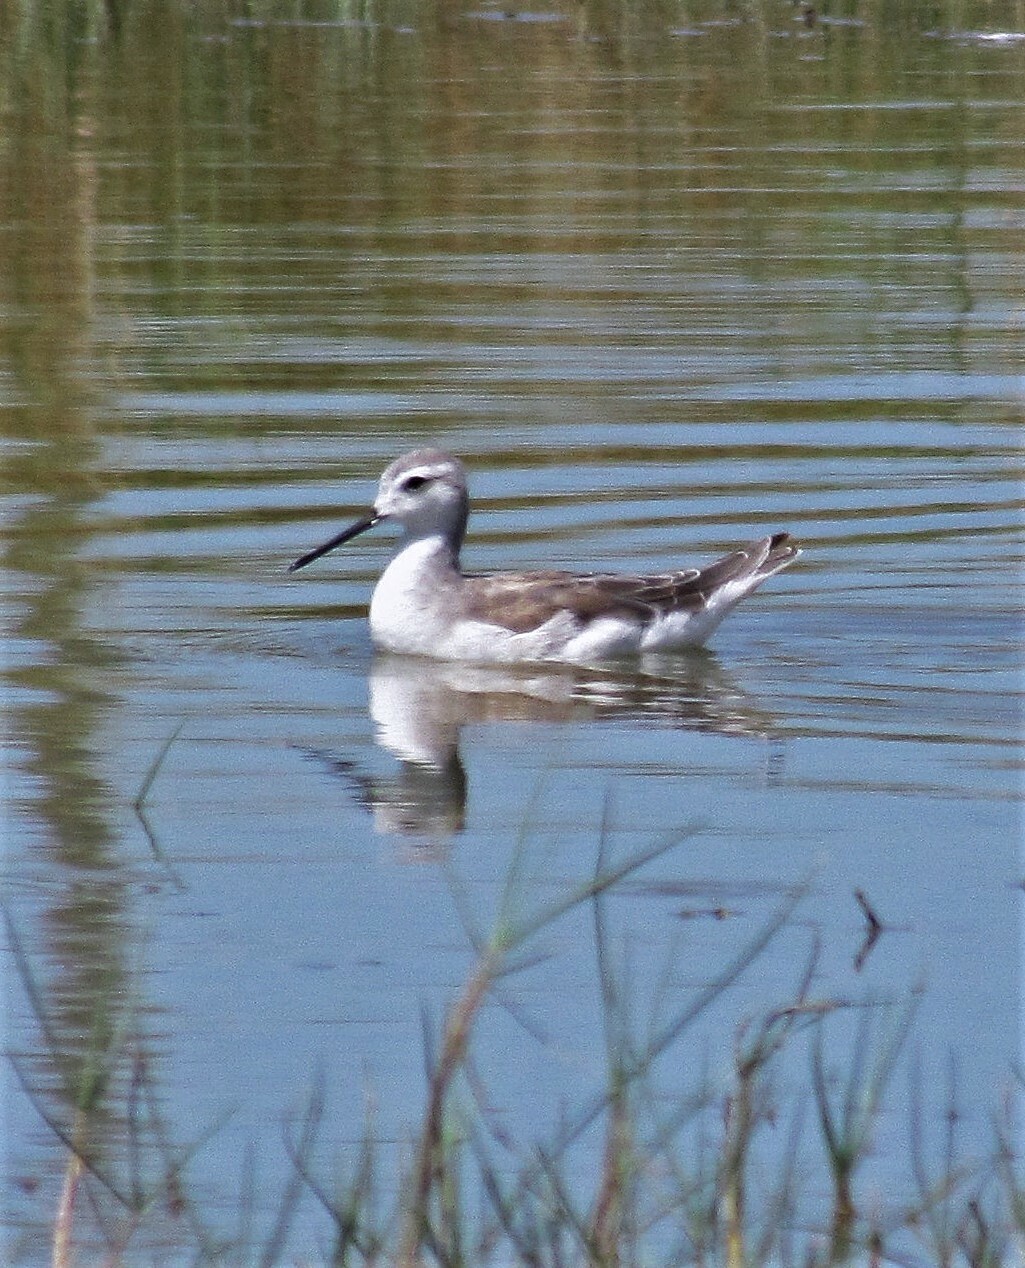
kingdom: Animalia
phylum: Chordata
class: Aves
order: Charadriiformes
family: Scolopacidae
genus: Phalaropus
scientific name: Phalaropus tricolor
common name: Wilson's phalarope
